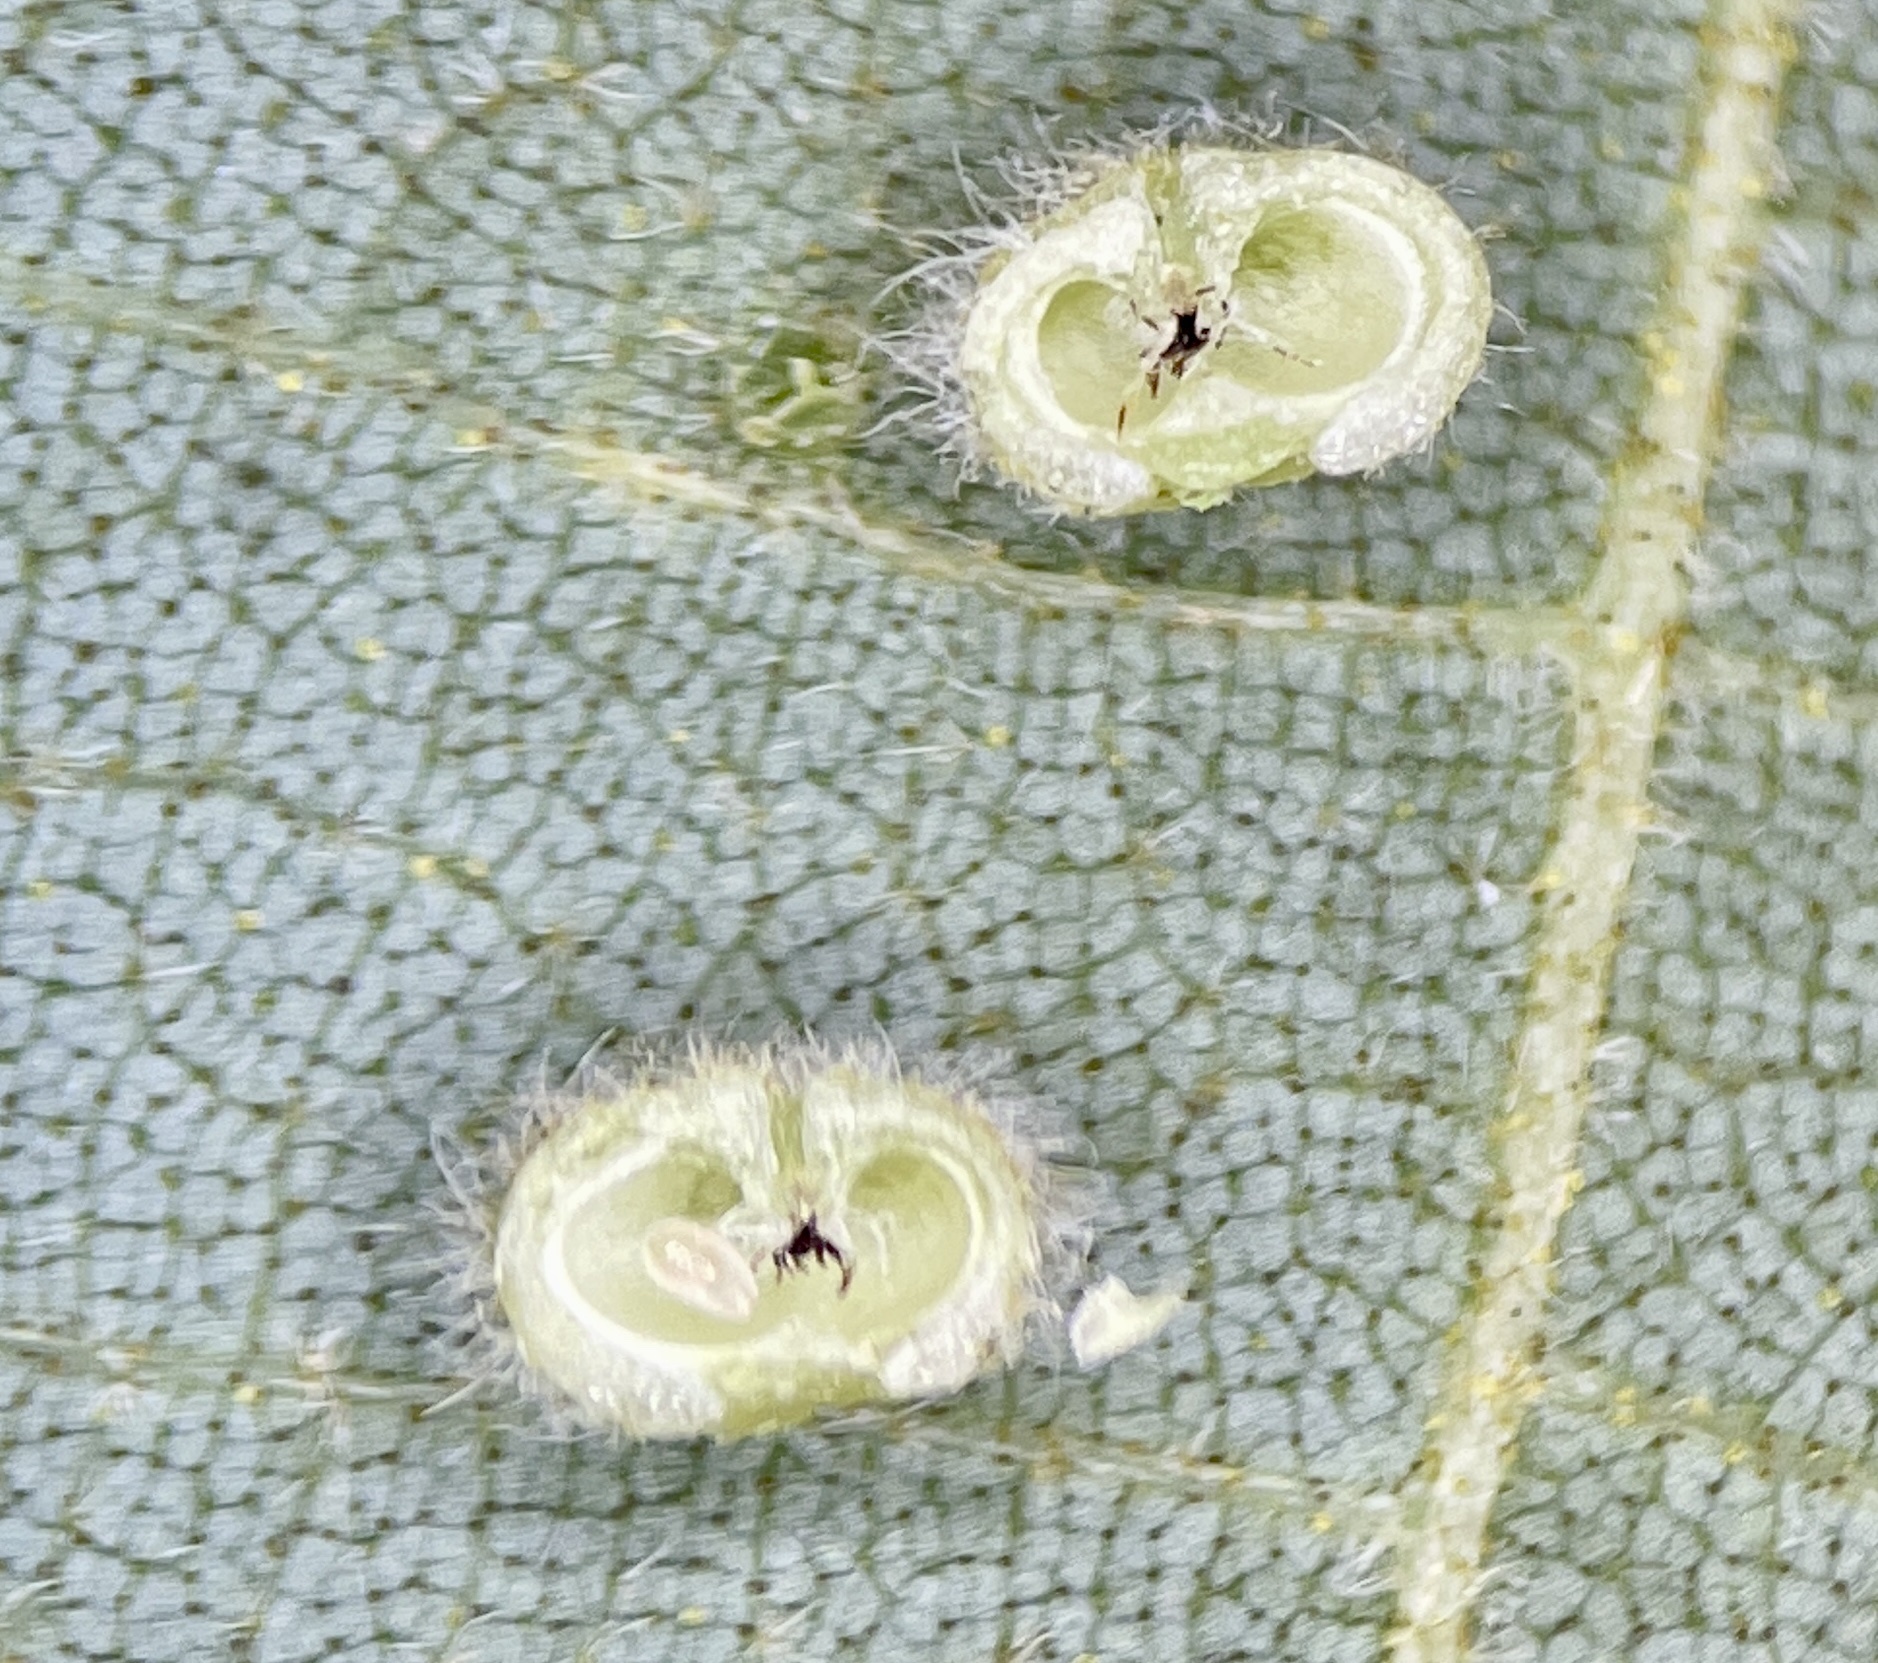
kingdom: Animalia
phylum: Arthropoda
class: Insecta
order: Diptera
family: Cecidomyiidae
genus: Caryomyia
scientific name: Caryomyia thompsoni
